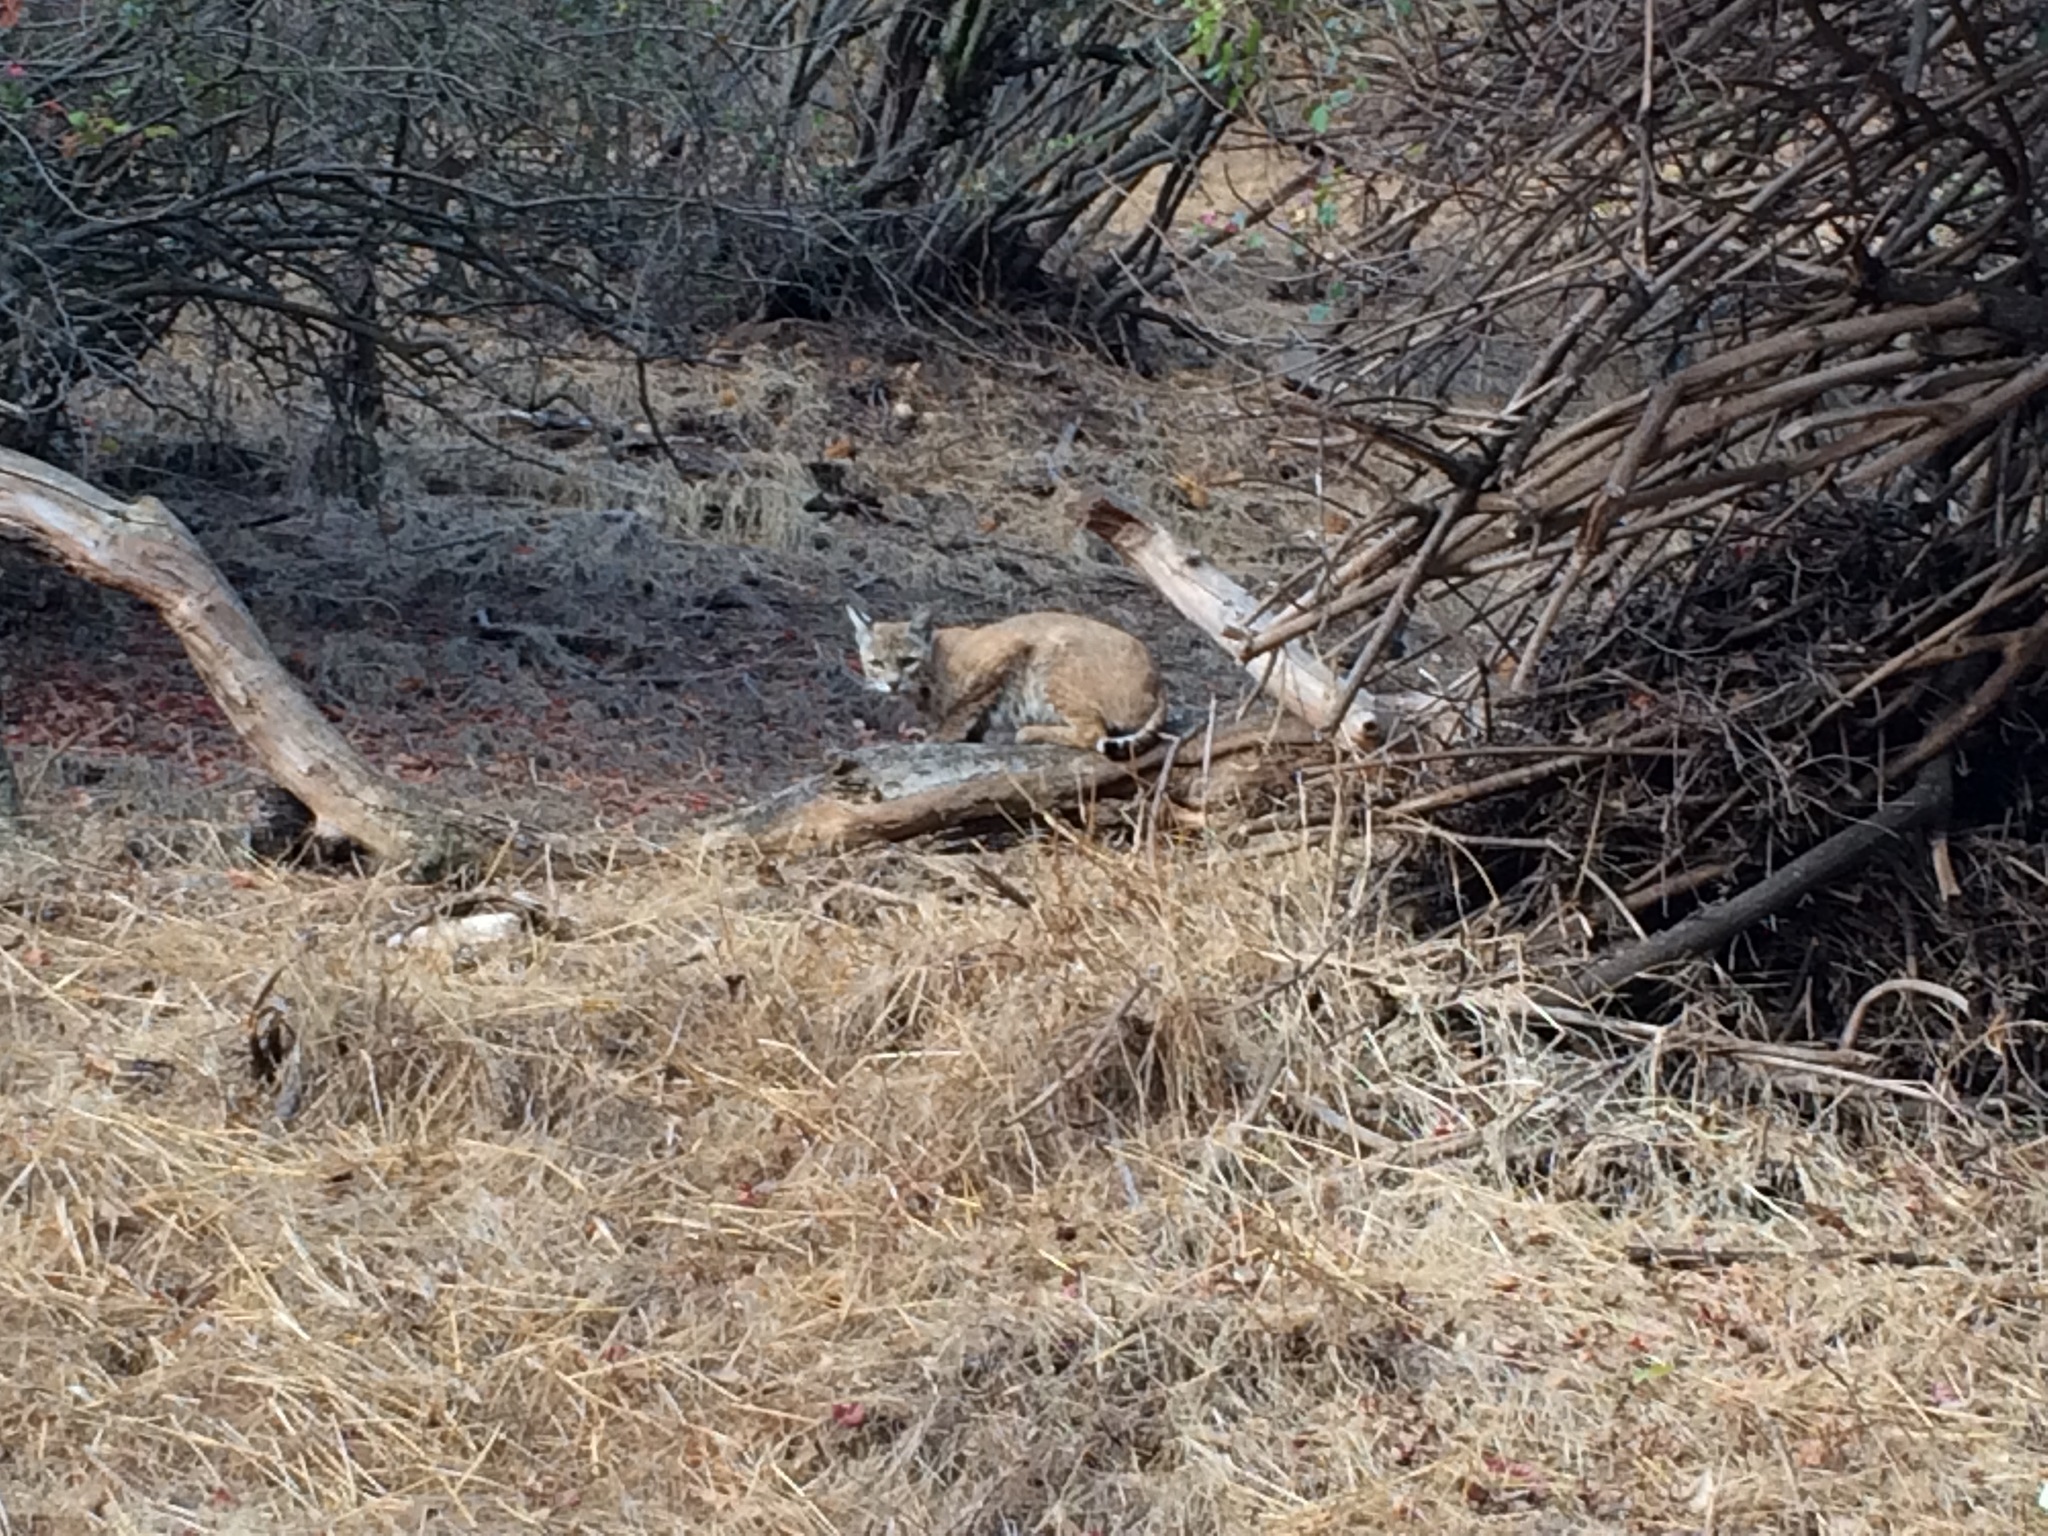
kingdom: Animalia
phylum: Chordata
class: Mammalia
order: Carnivora
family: Felidae
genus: Lynx
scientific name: Lynx rufus
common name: Bobcat
